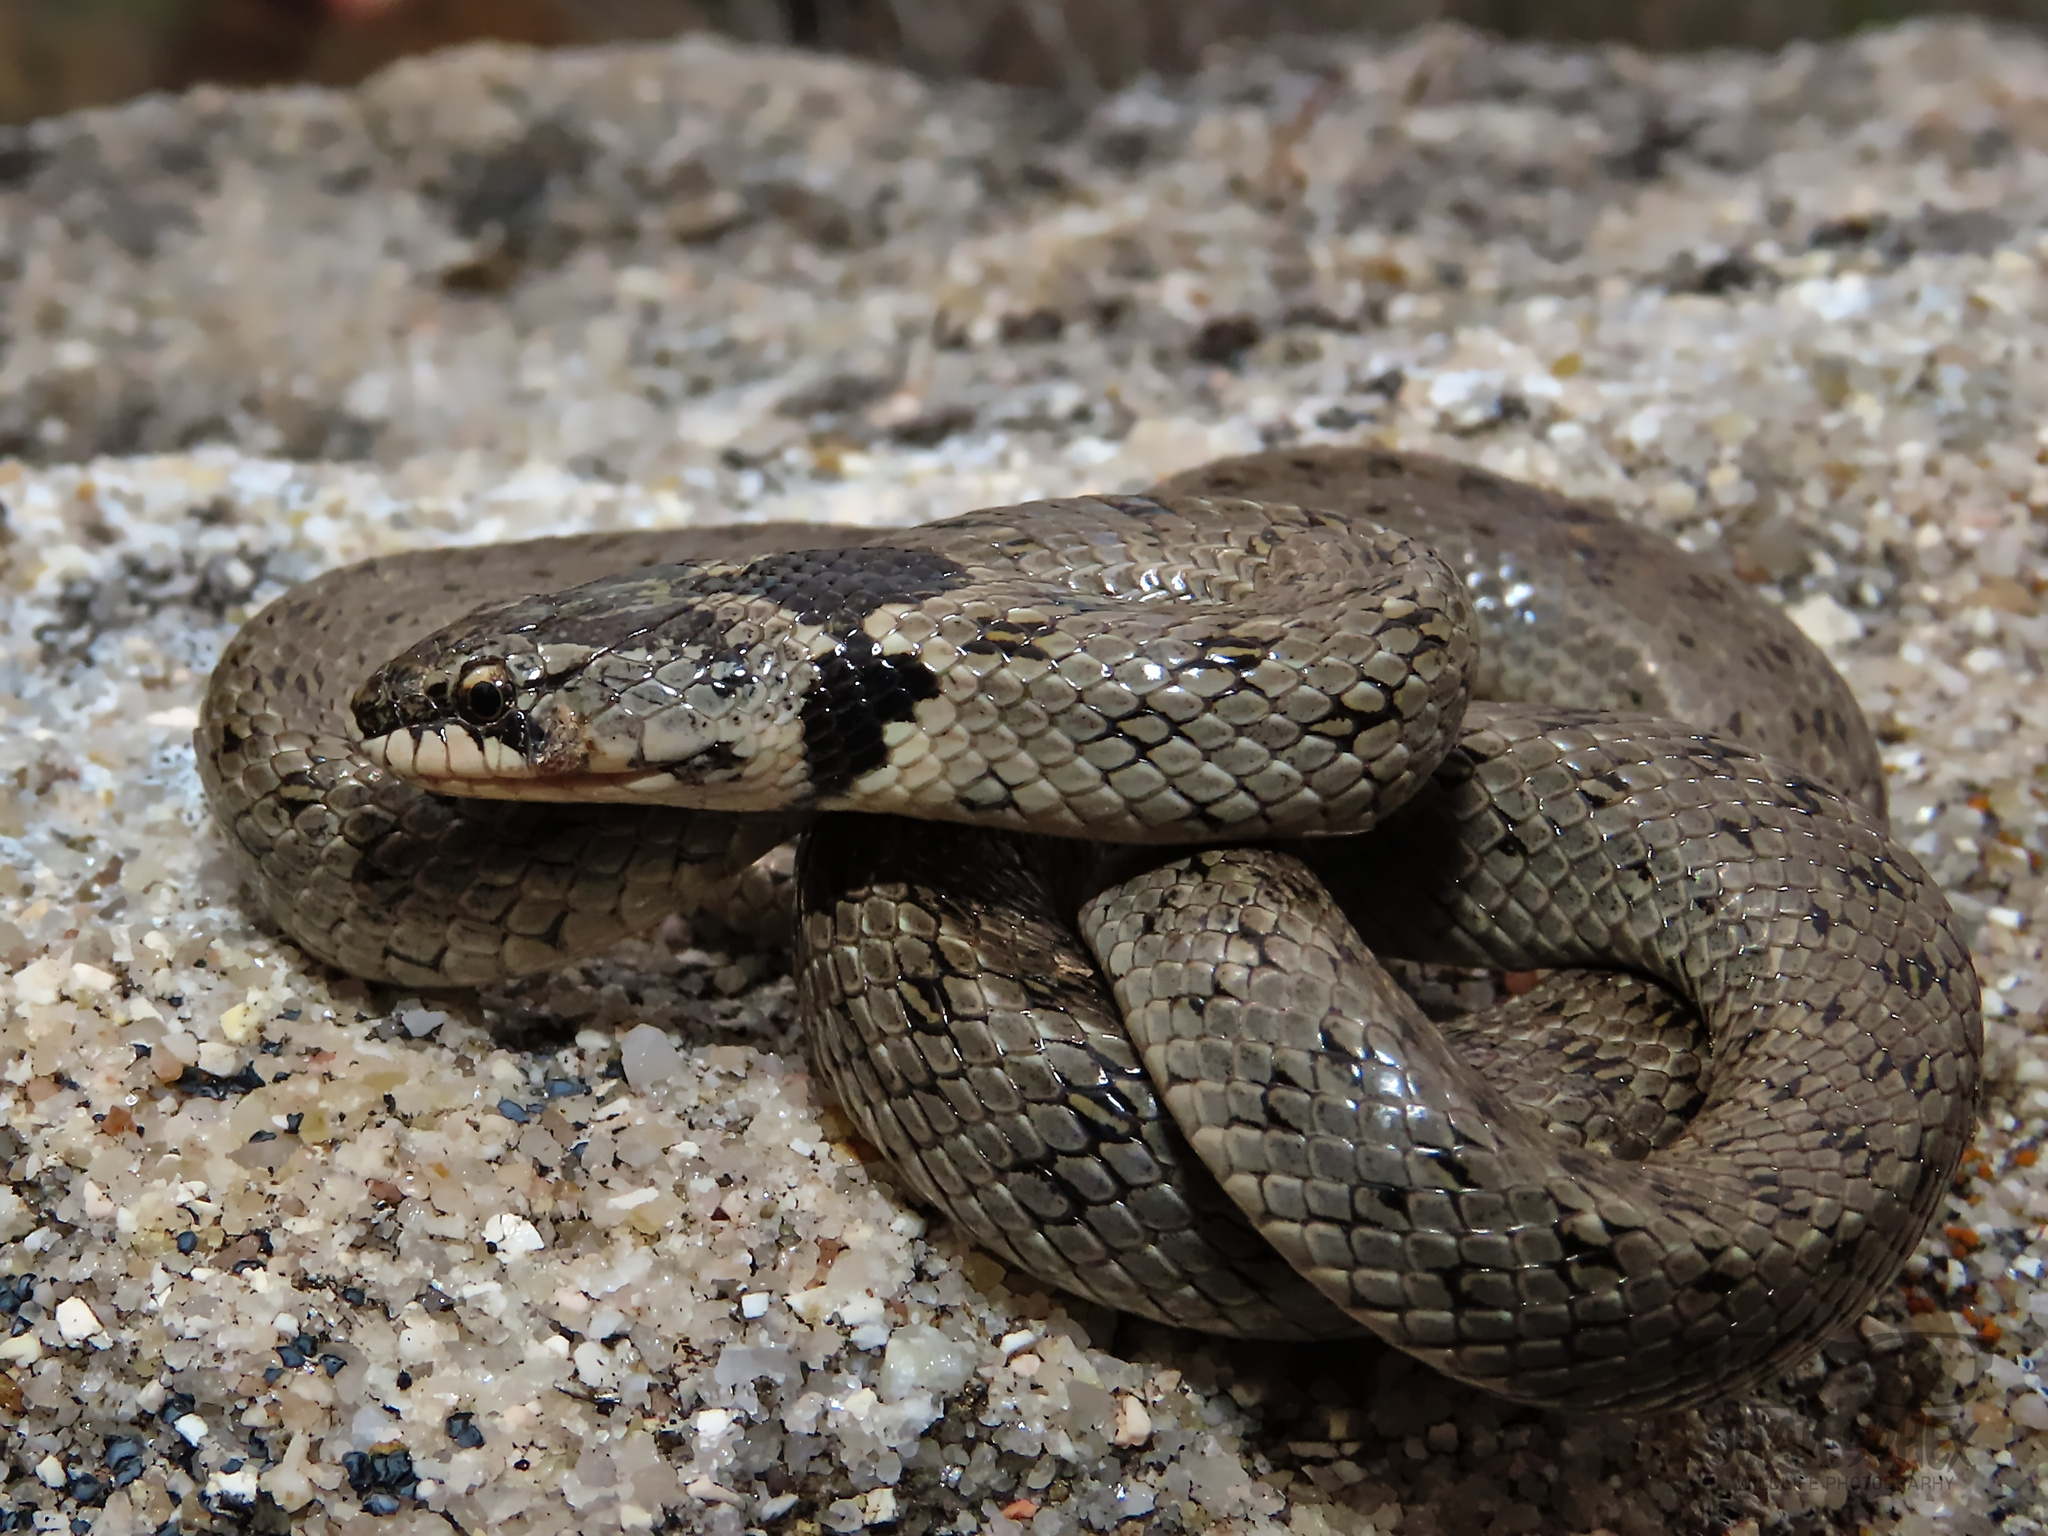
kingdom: Animalia
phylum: Chordata
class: Squamata
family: Colubridae
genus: Macroprotodon
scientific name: Macroprotodon brevis
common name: Iberian false smooth snake
